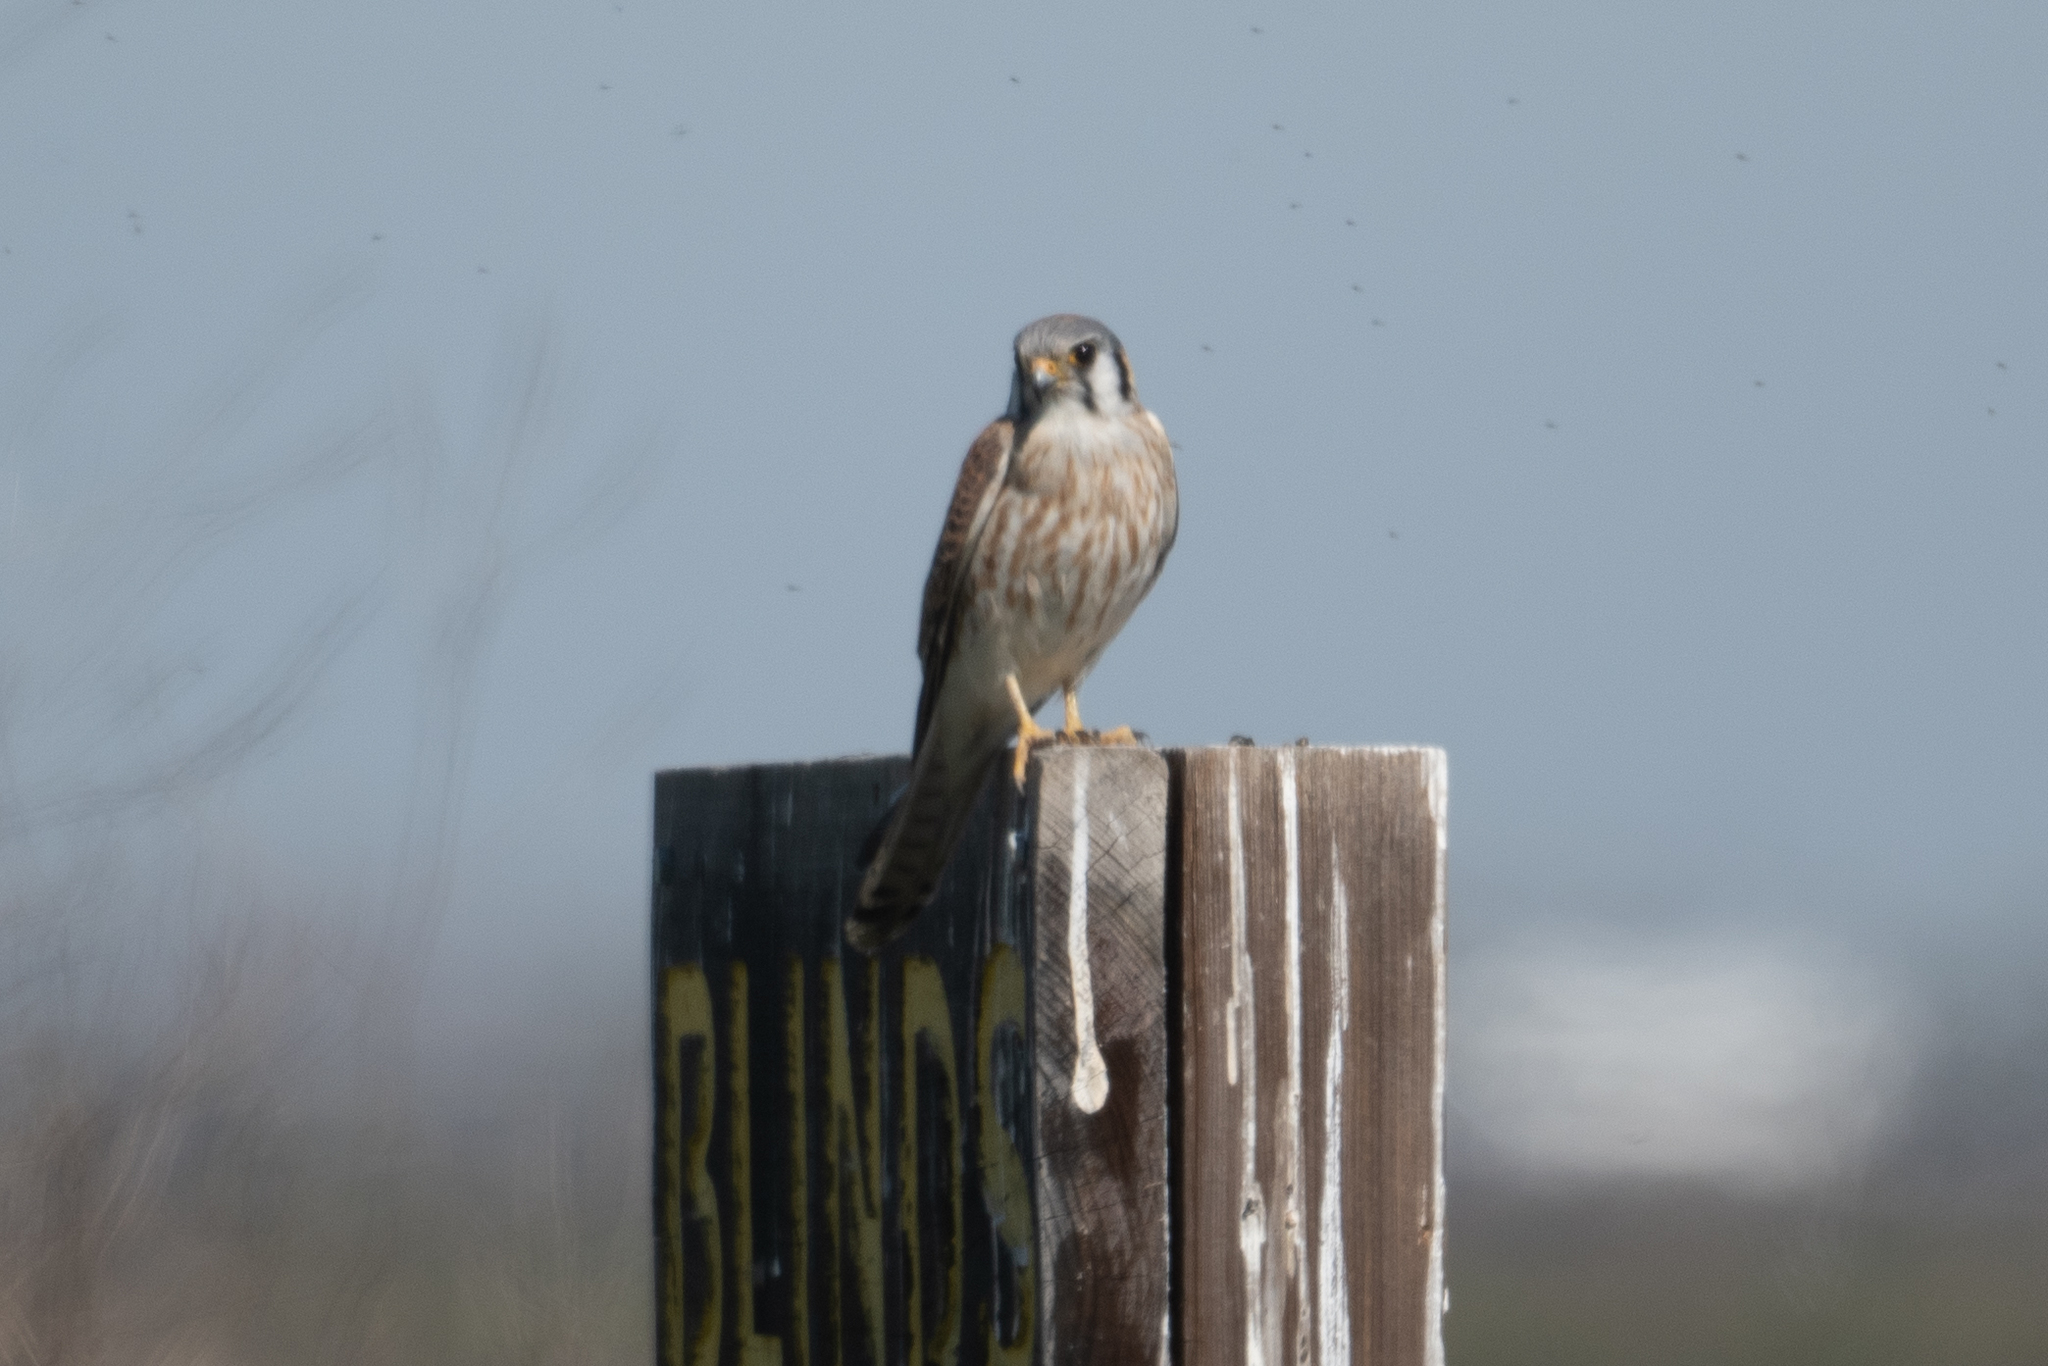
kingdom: Animalia
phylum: Chordata
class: Aves
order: Falconiformes
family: Falconidae
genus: Falco
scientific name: Falco sparverius
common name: American kestrel
